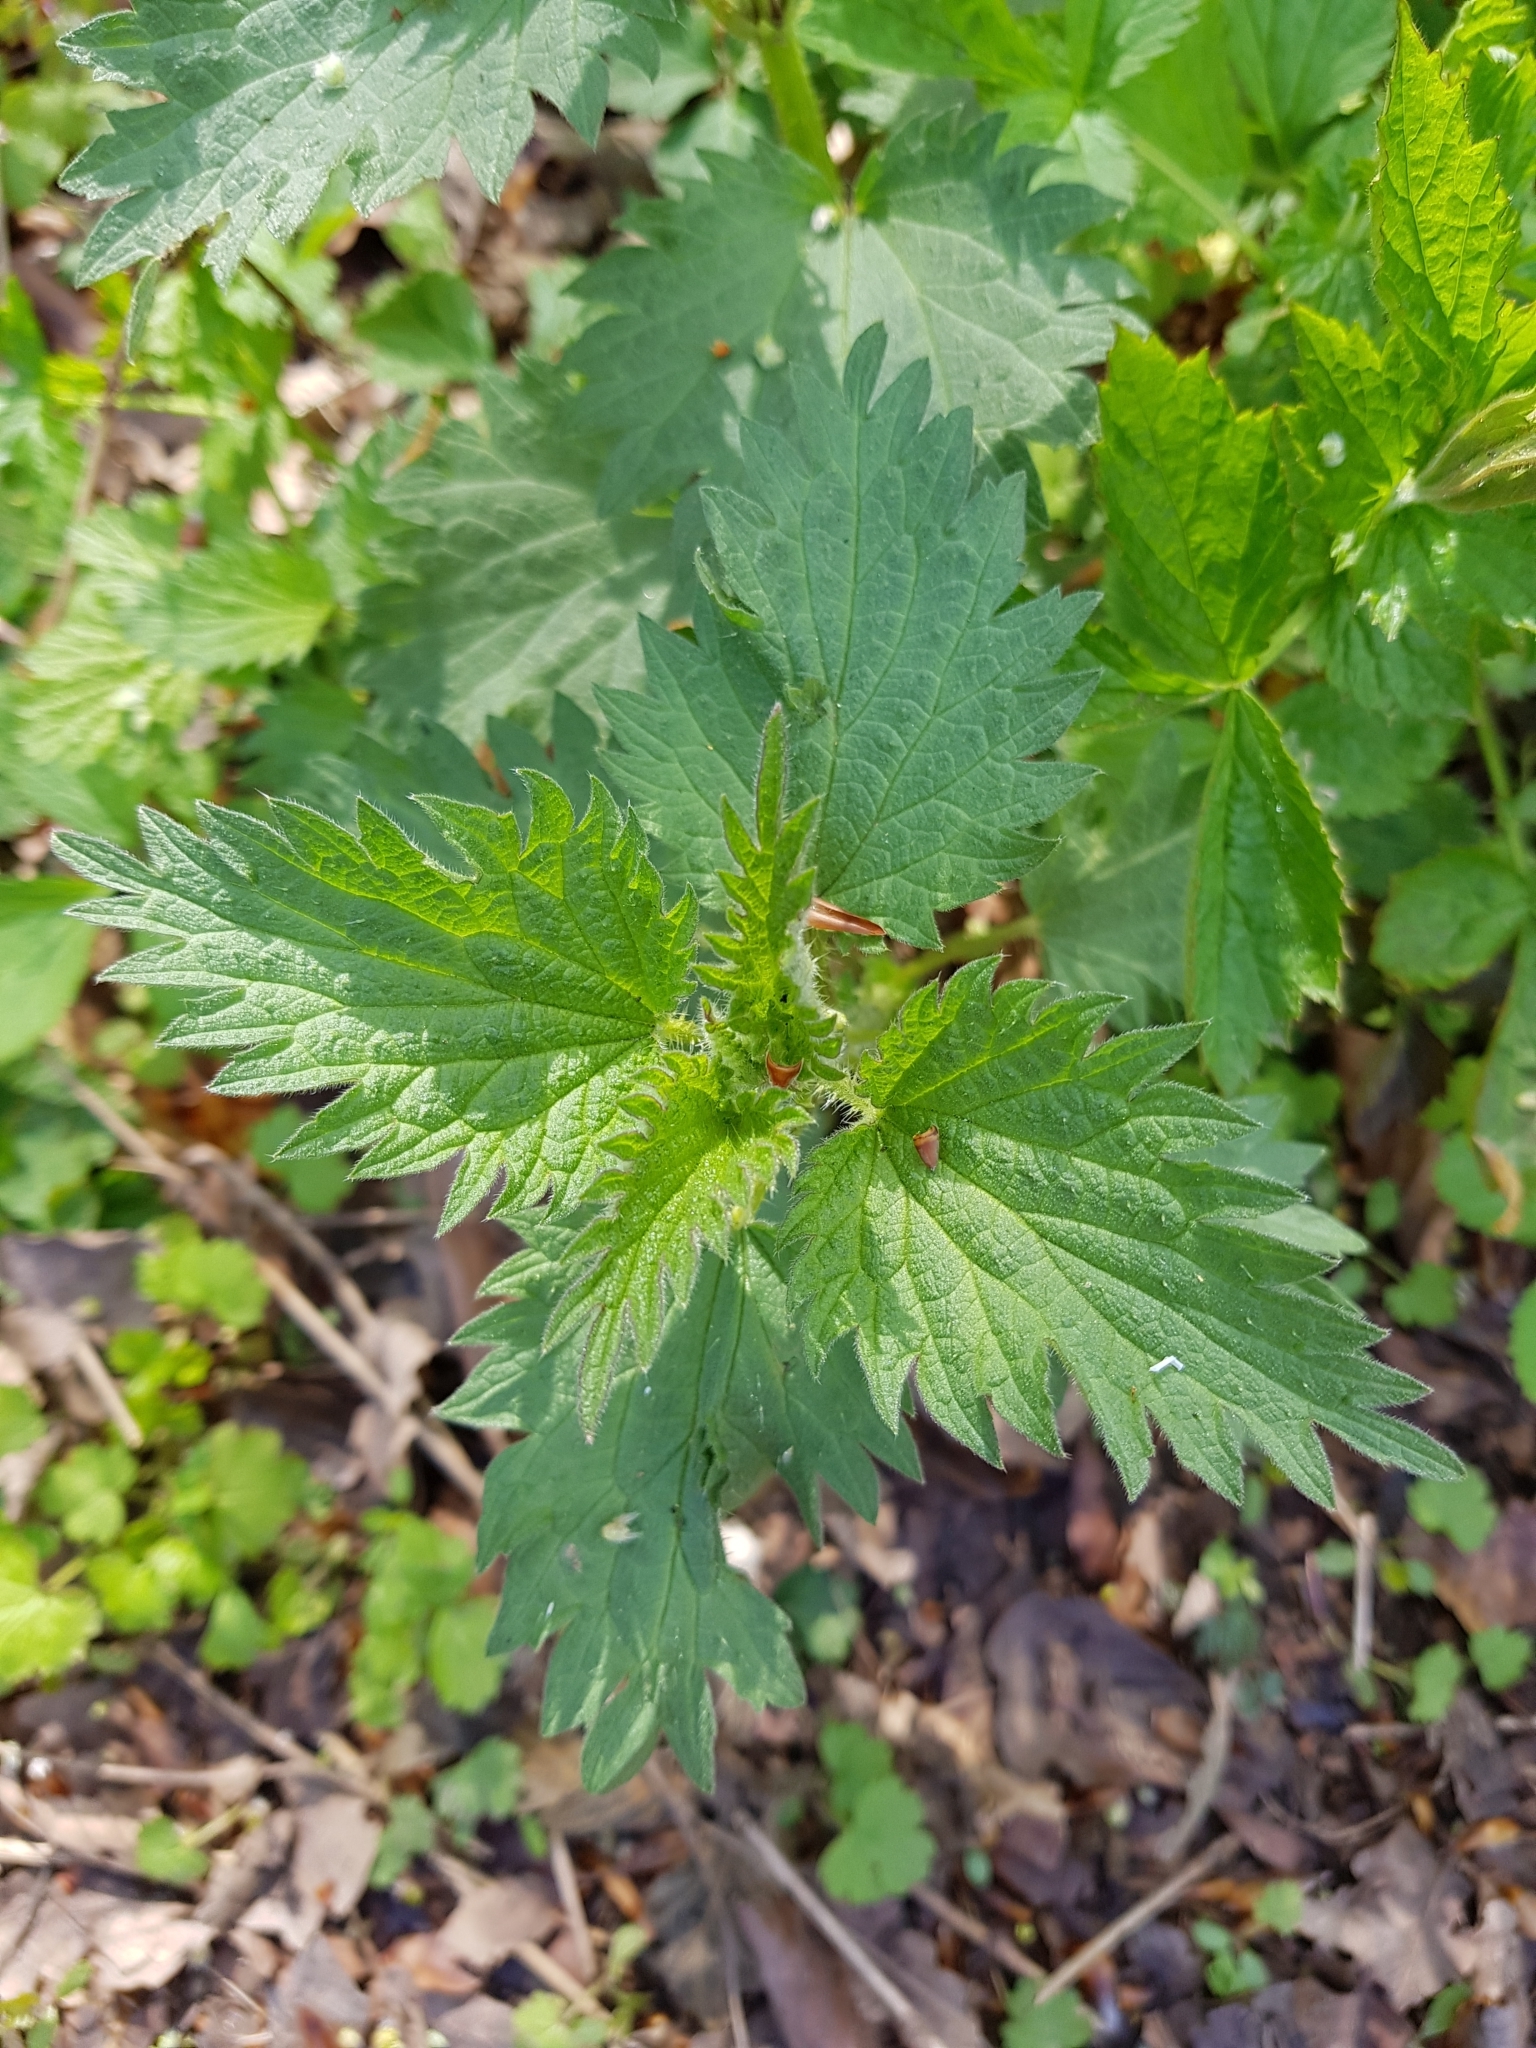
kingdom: Plantae
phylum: Tracheophyta
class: Magnoliopsida
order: Rosales
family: Urticaceae
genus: Urtica
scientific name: Urtica dioica
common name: Common nettle
